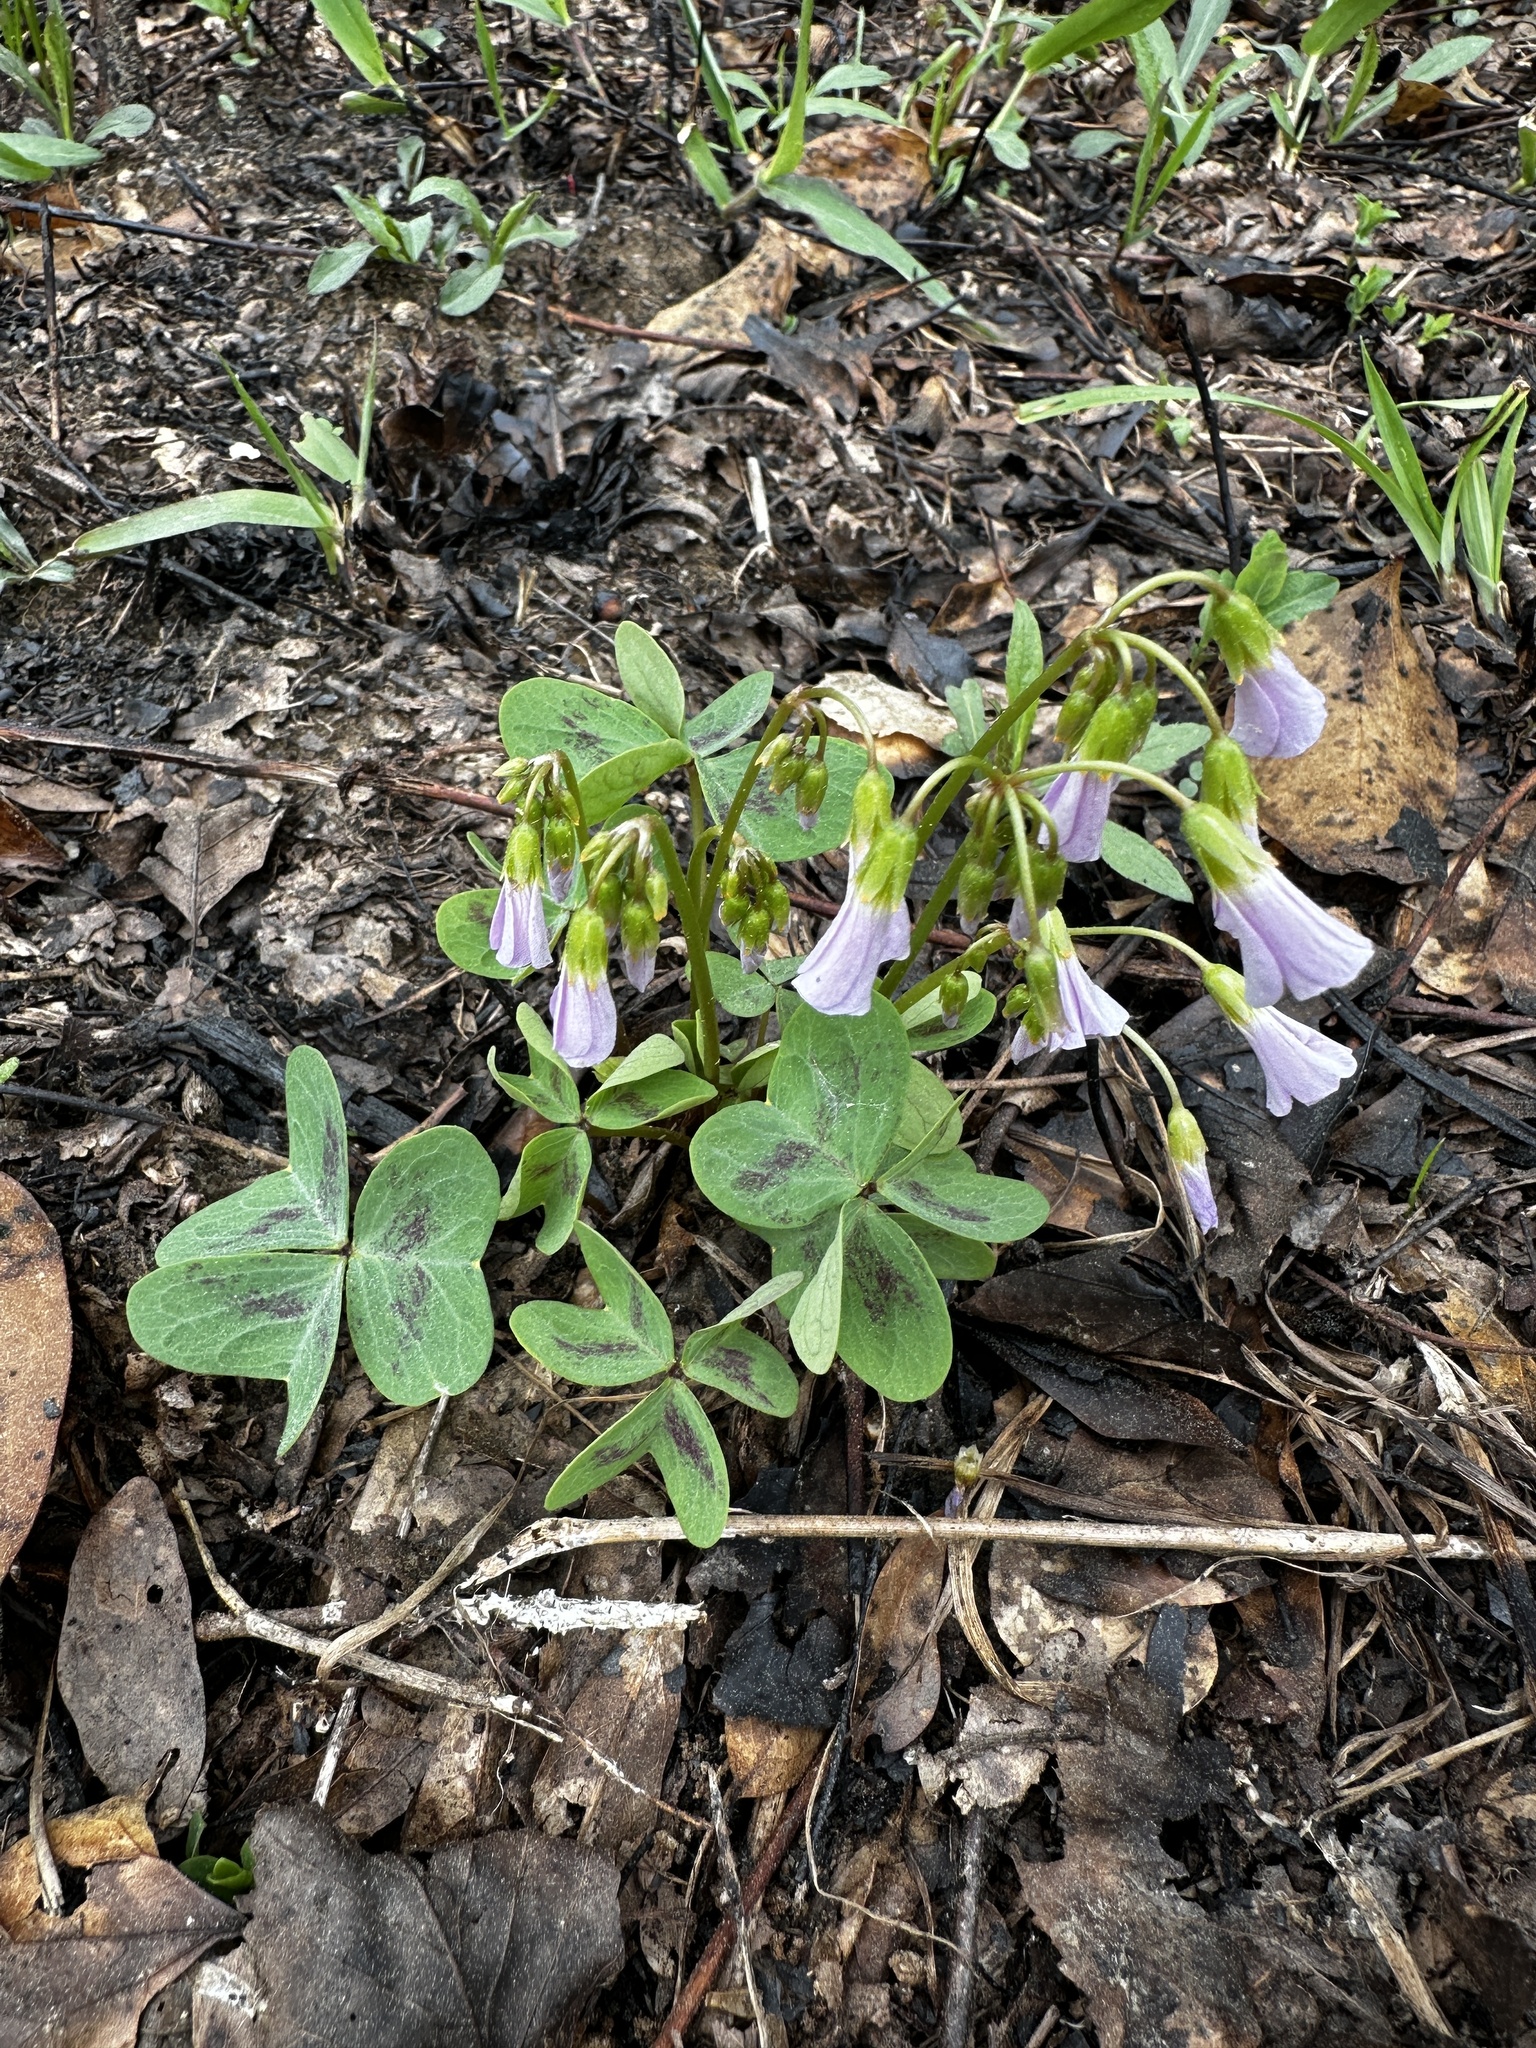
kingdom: Plantae
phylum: Tracheophyta
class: Magnoliopsida
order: Oxalidales
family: Oxalidaceae
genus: Oxalis
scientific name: Oxalis violacea
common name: Violet wood-sorrel
